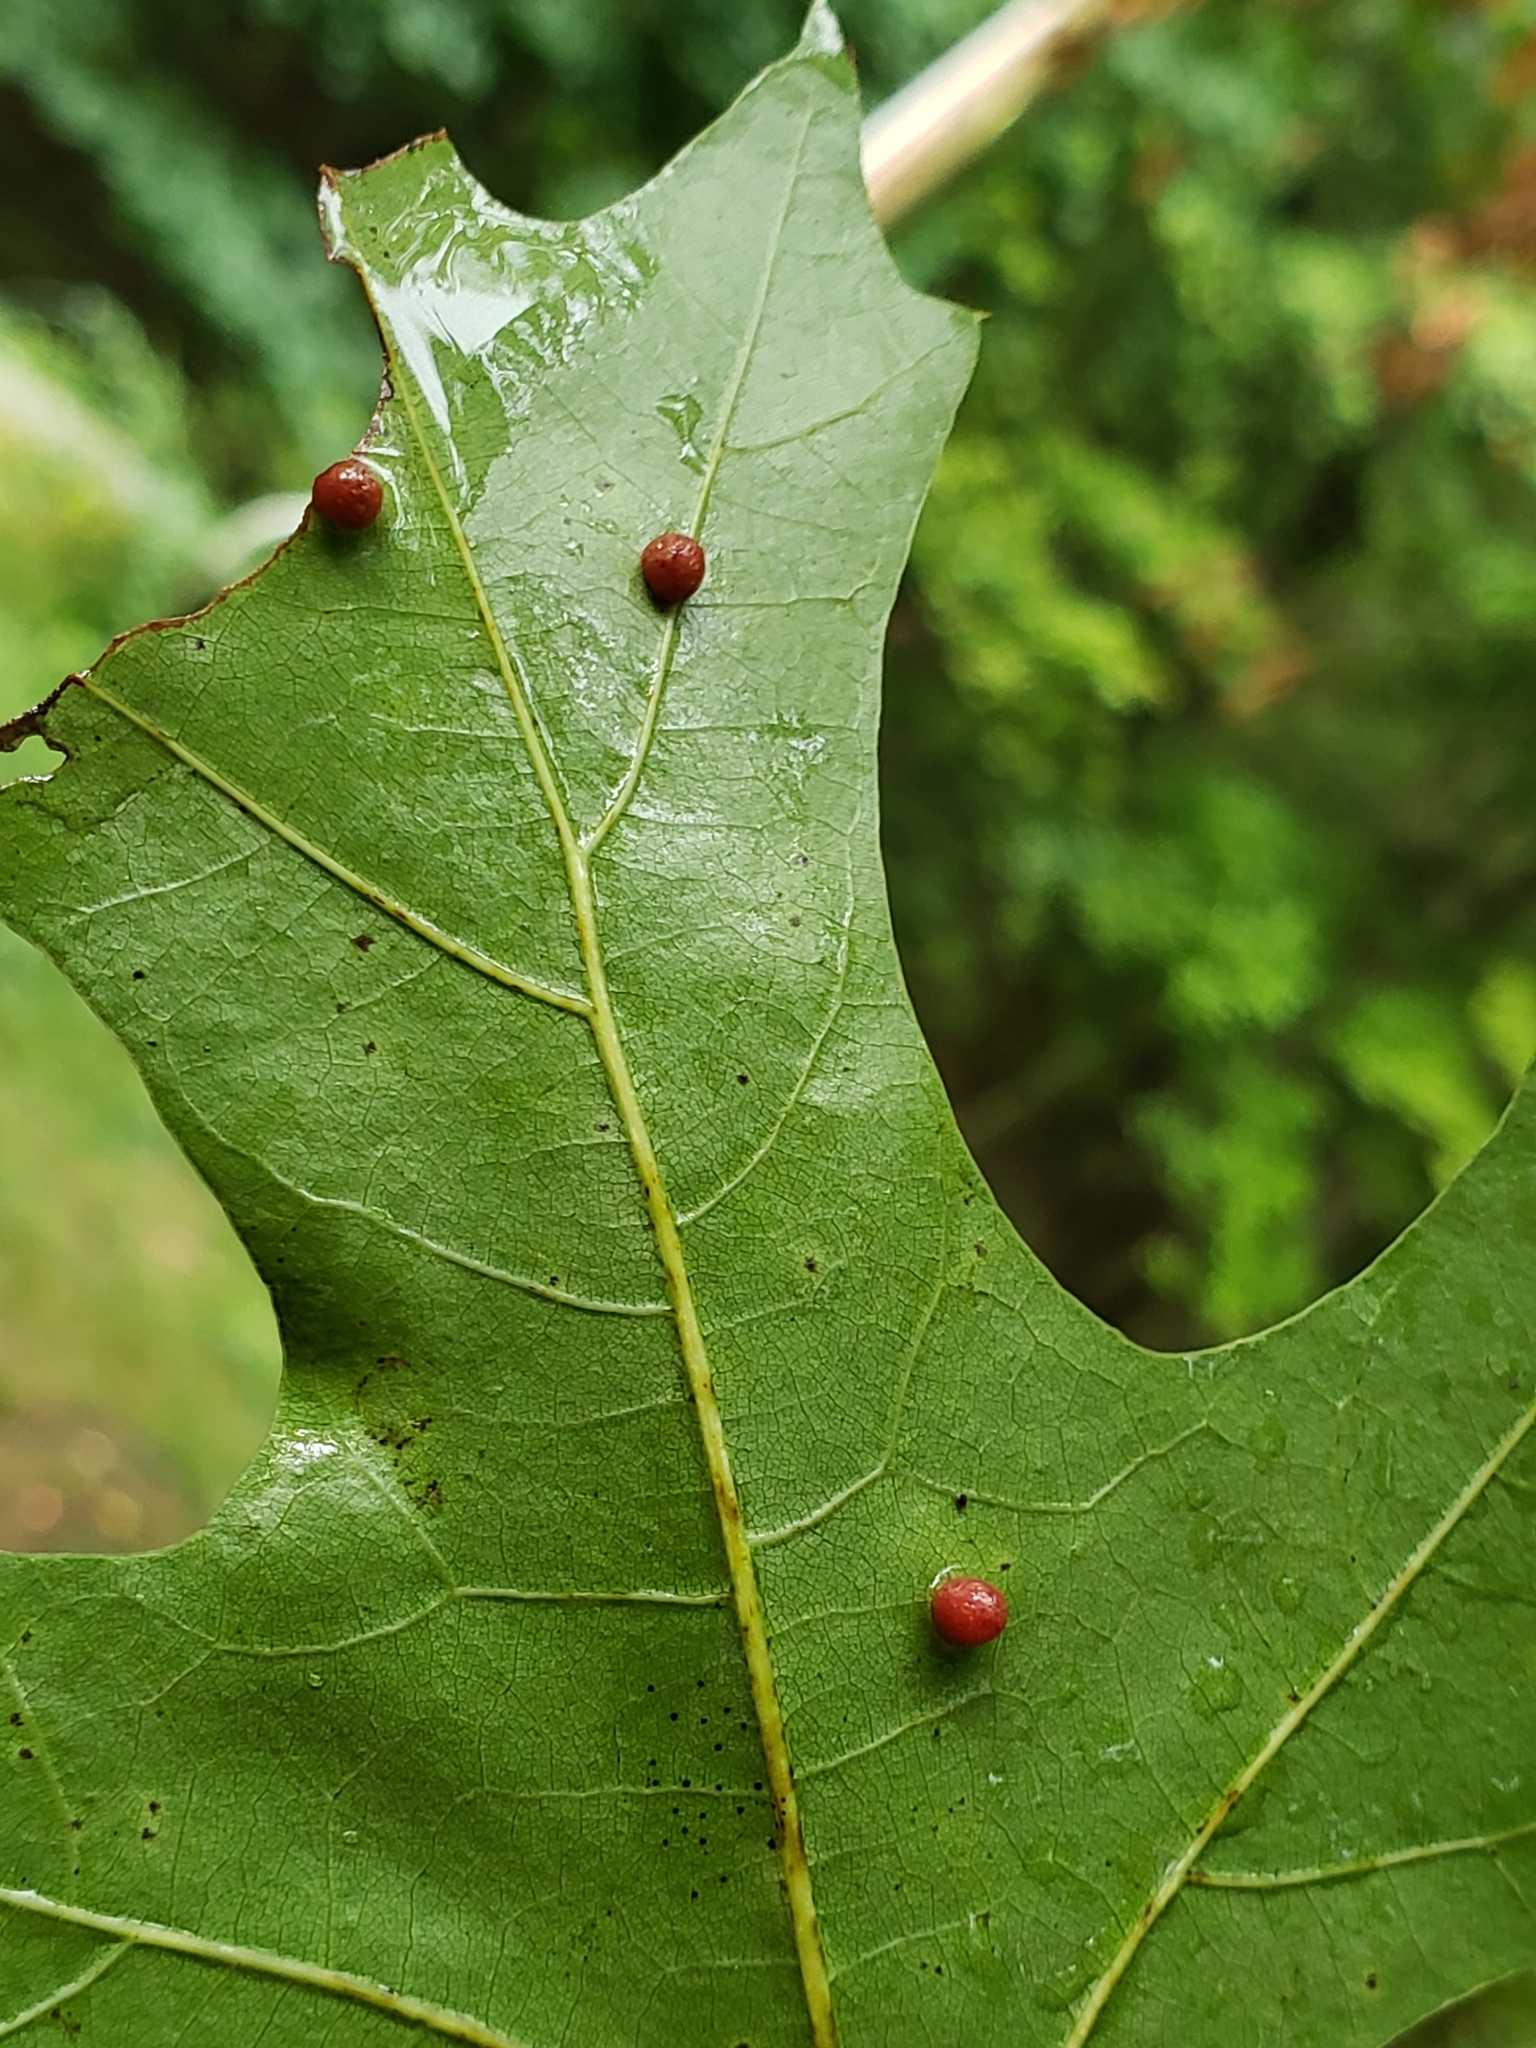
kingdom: Animalia
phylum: Arthropoda
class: Insecta
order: Diptera
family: Cecidomyiidae
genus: Polystepha
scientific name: Polystepha globosa
